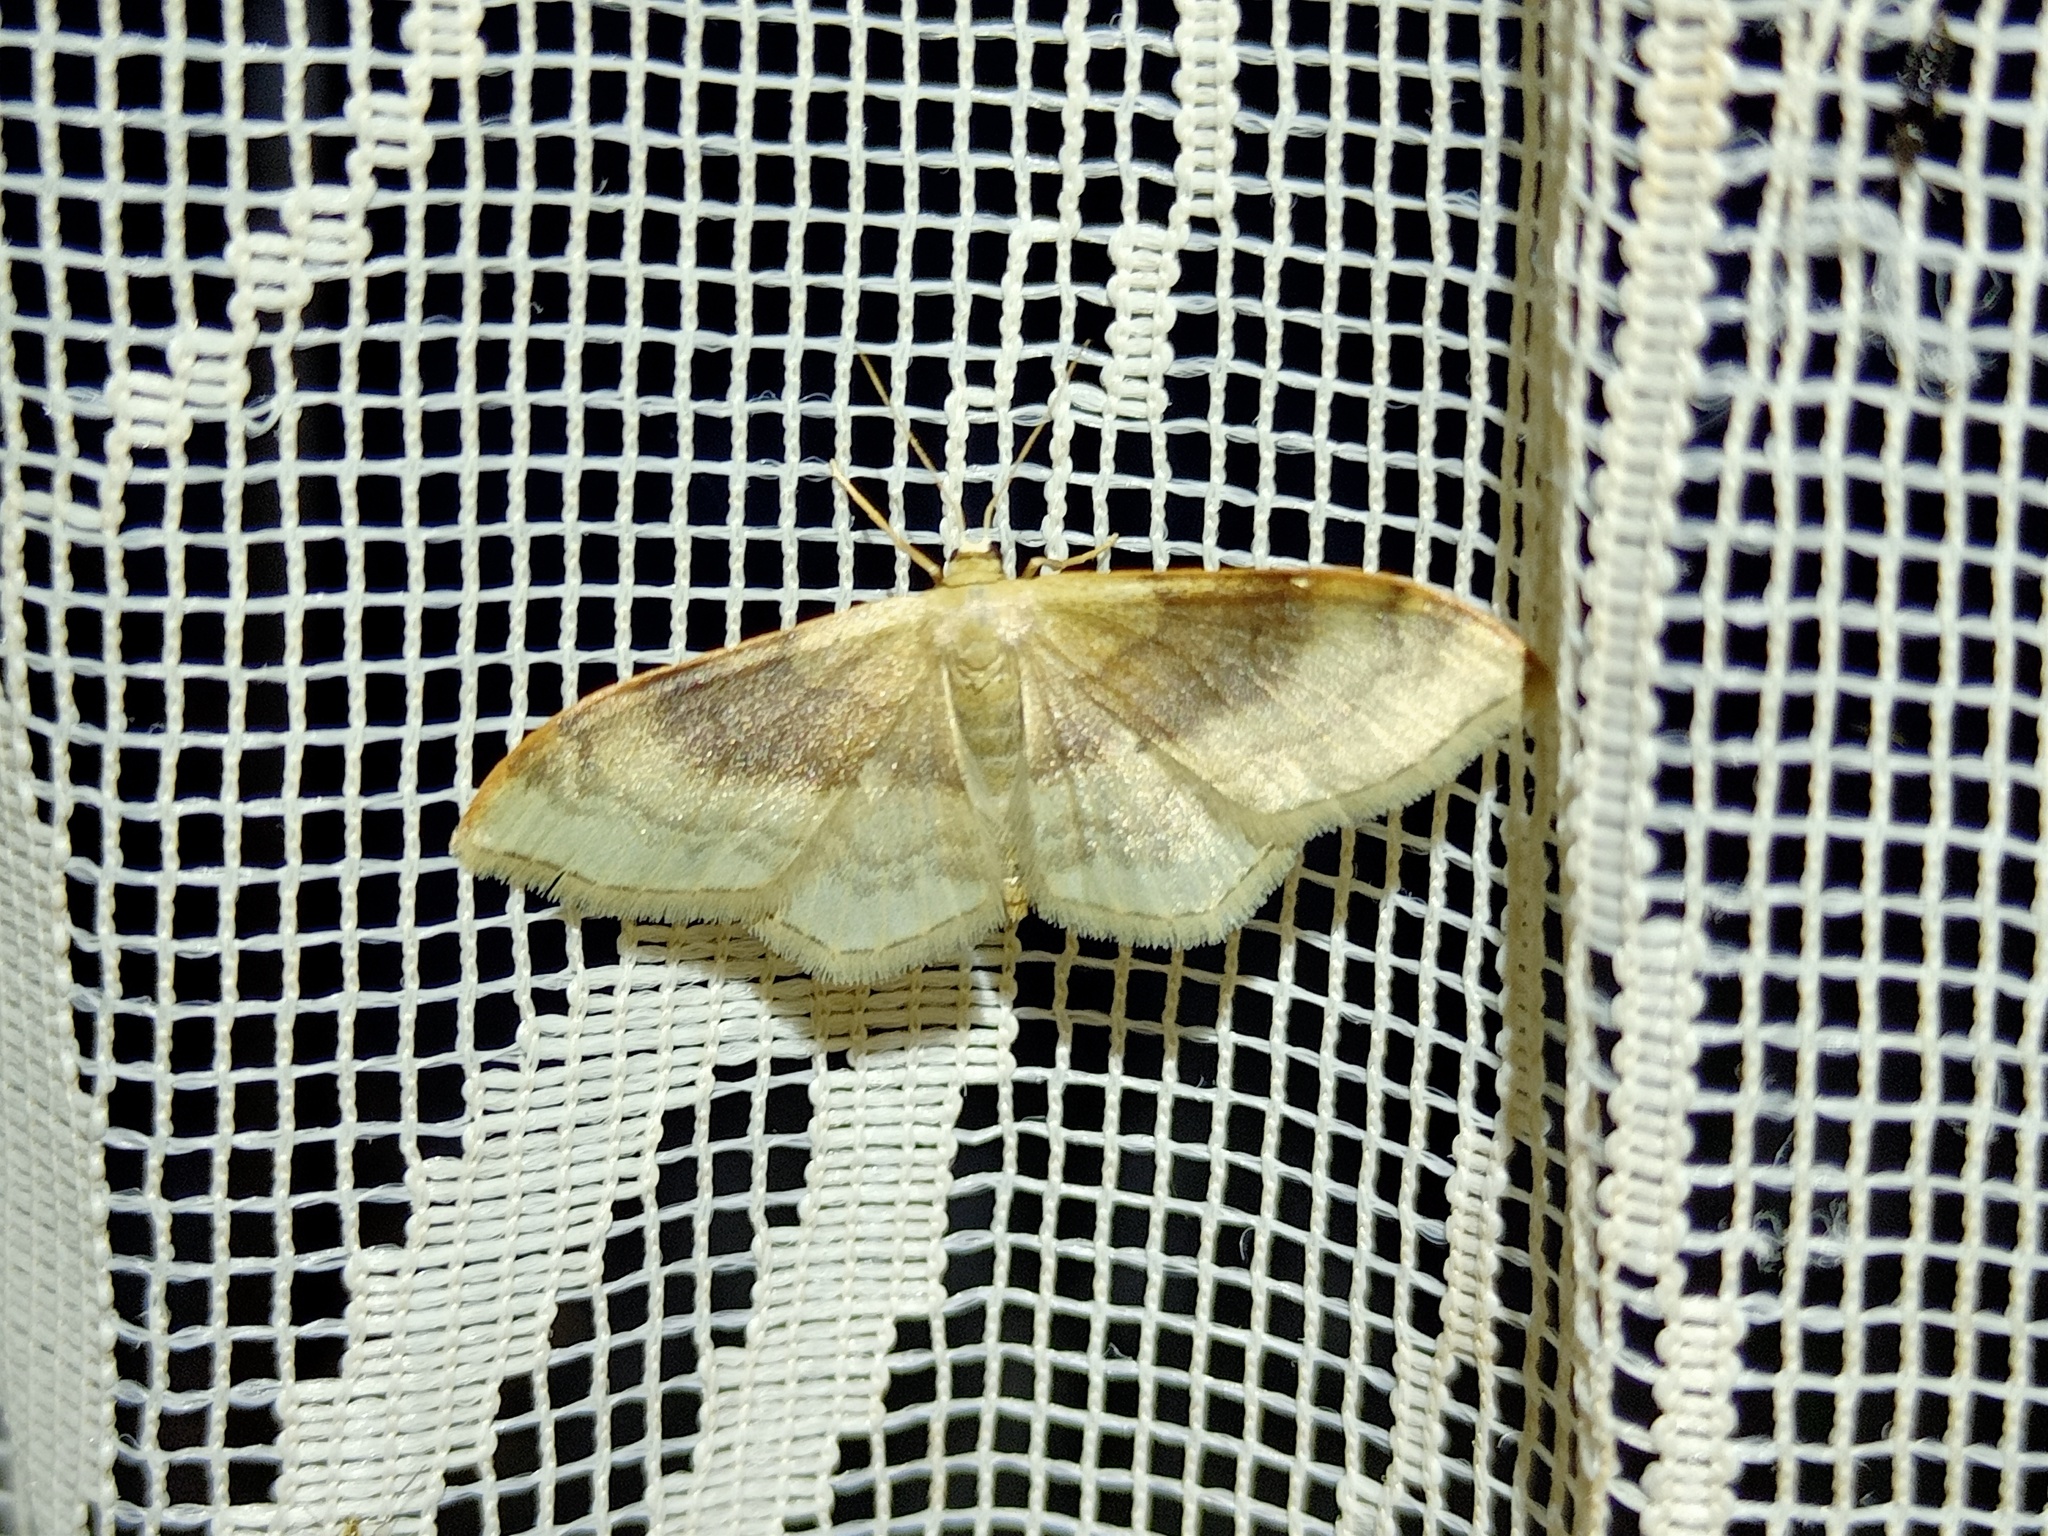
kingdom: Animalia
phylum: Arthropoda
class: Insecta
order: Lepidoptera
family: Geometridae
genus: Idaea
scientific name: Idaea degeneraria
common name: Portland ribbon wave
